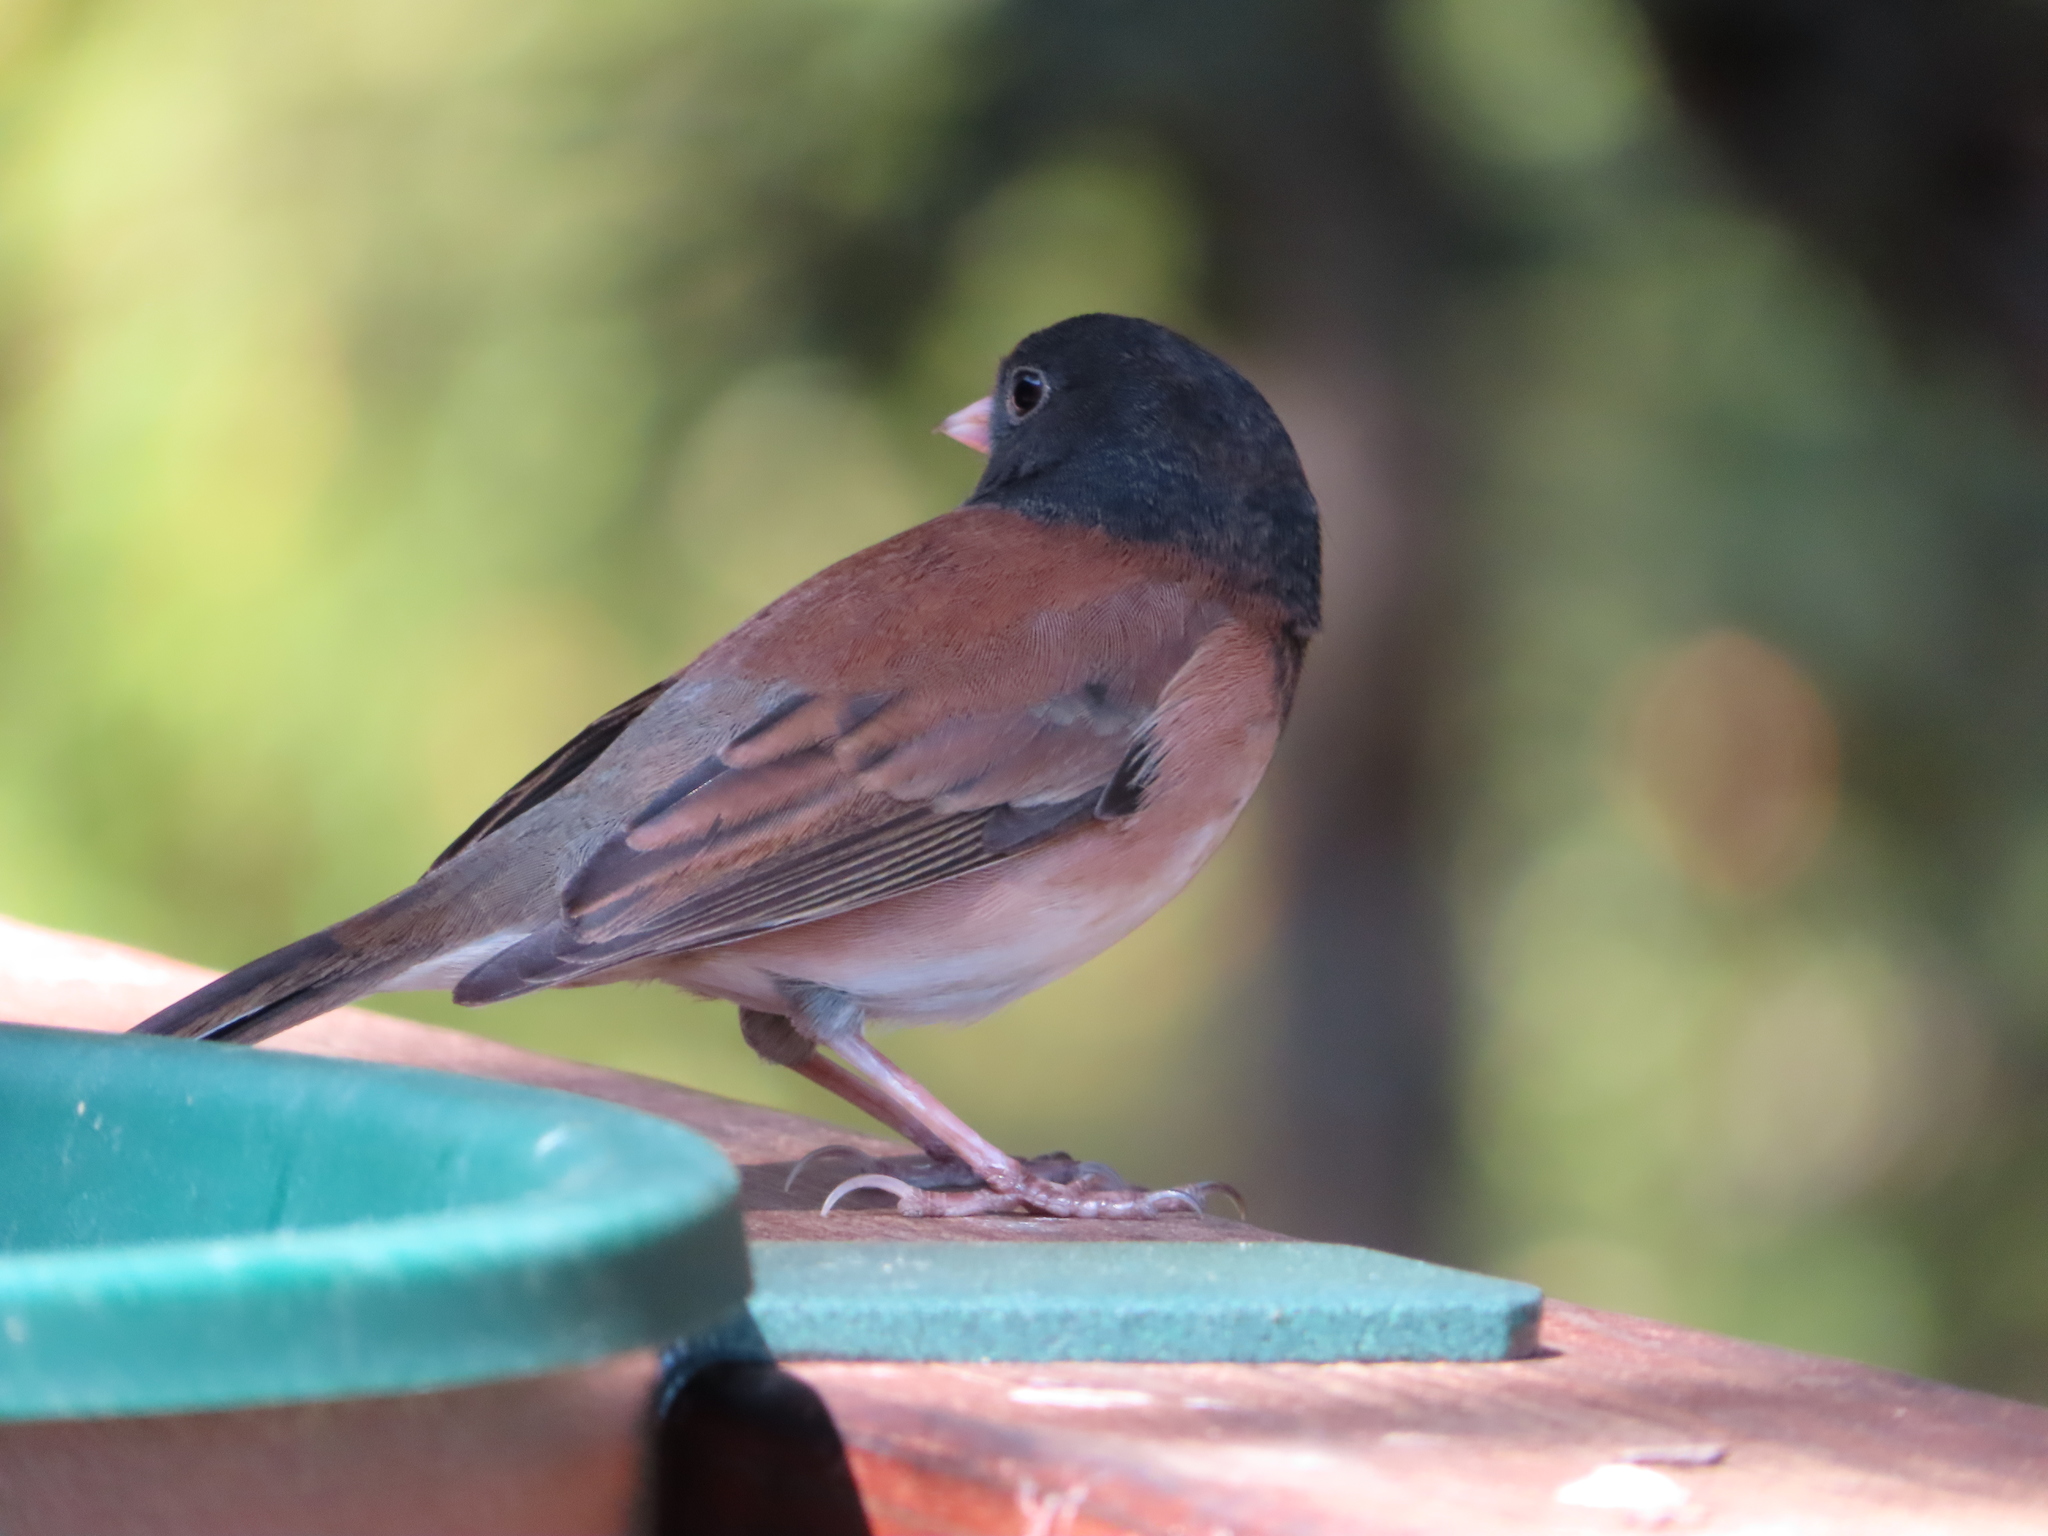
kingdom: Animalia
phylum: Chordata
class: Aves
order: Passeriformes
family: Passerellidae
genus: Junco
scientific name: Junco hyemalis
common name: Dark-eyed junco
